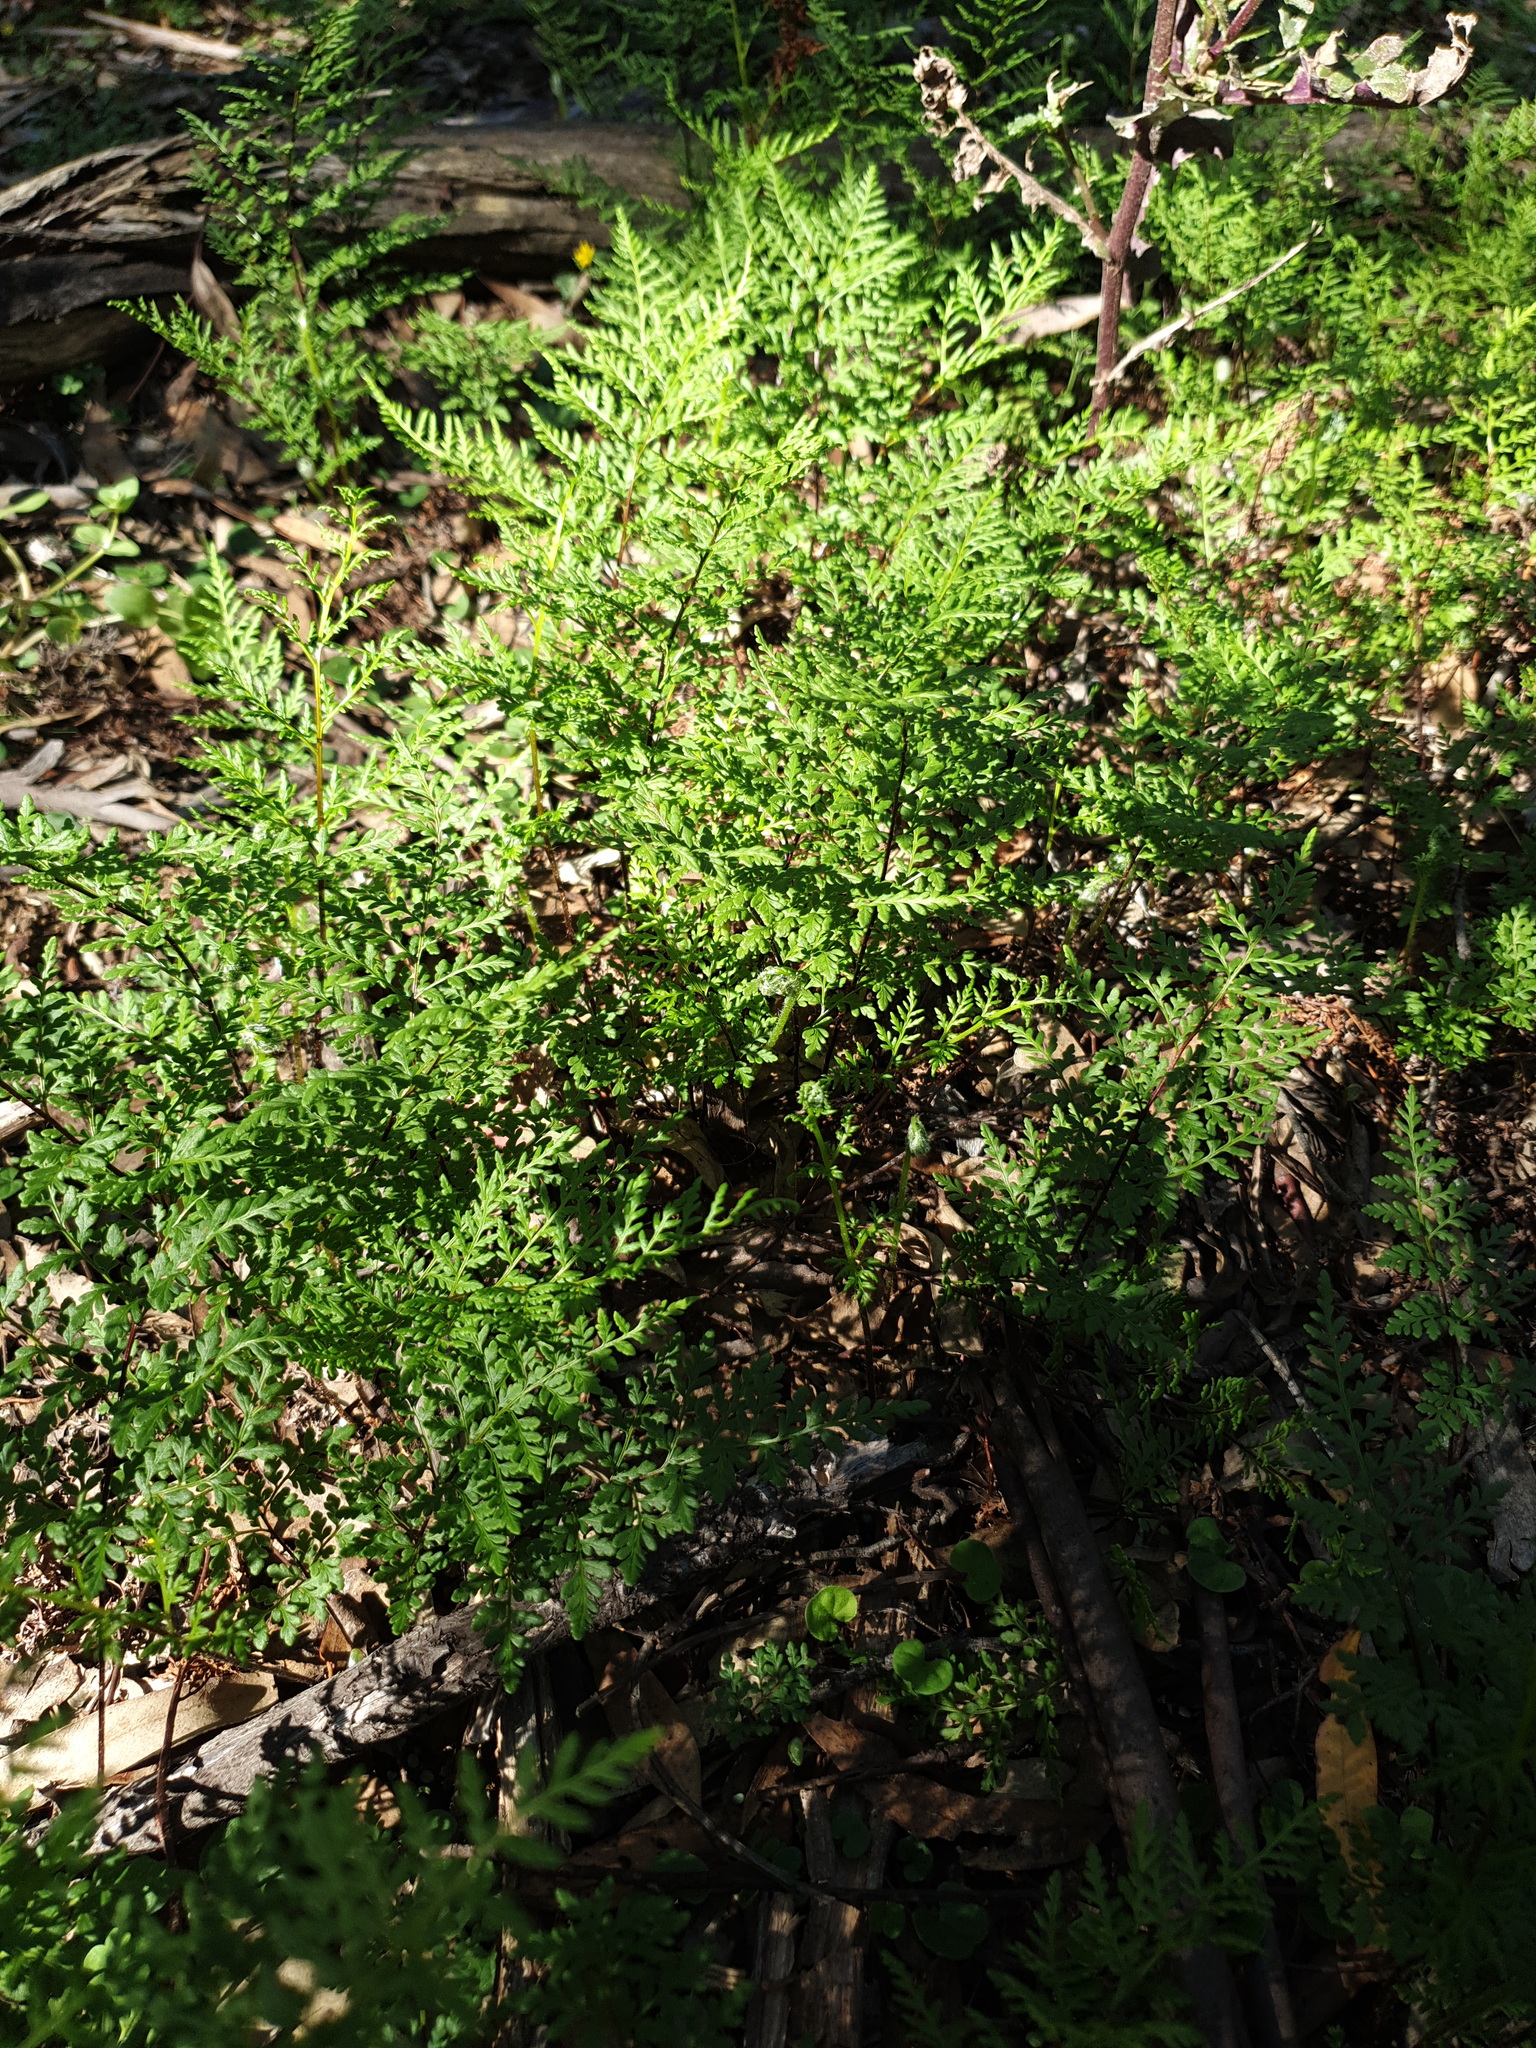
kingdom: Plantae
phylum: Tracheophyta
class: Polypodiopsida
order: Polypodiales
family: Pteridaceae
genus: Cheilanthes
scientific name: Cheilanthes austrotenuifolia
